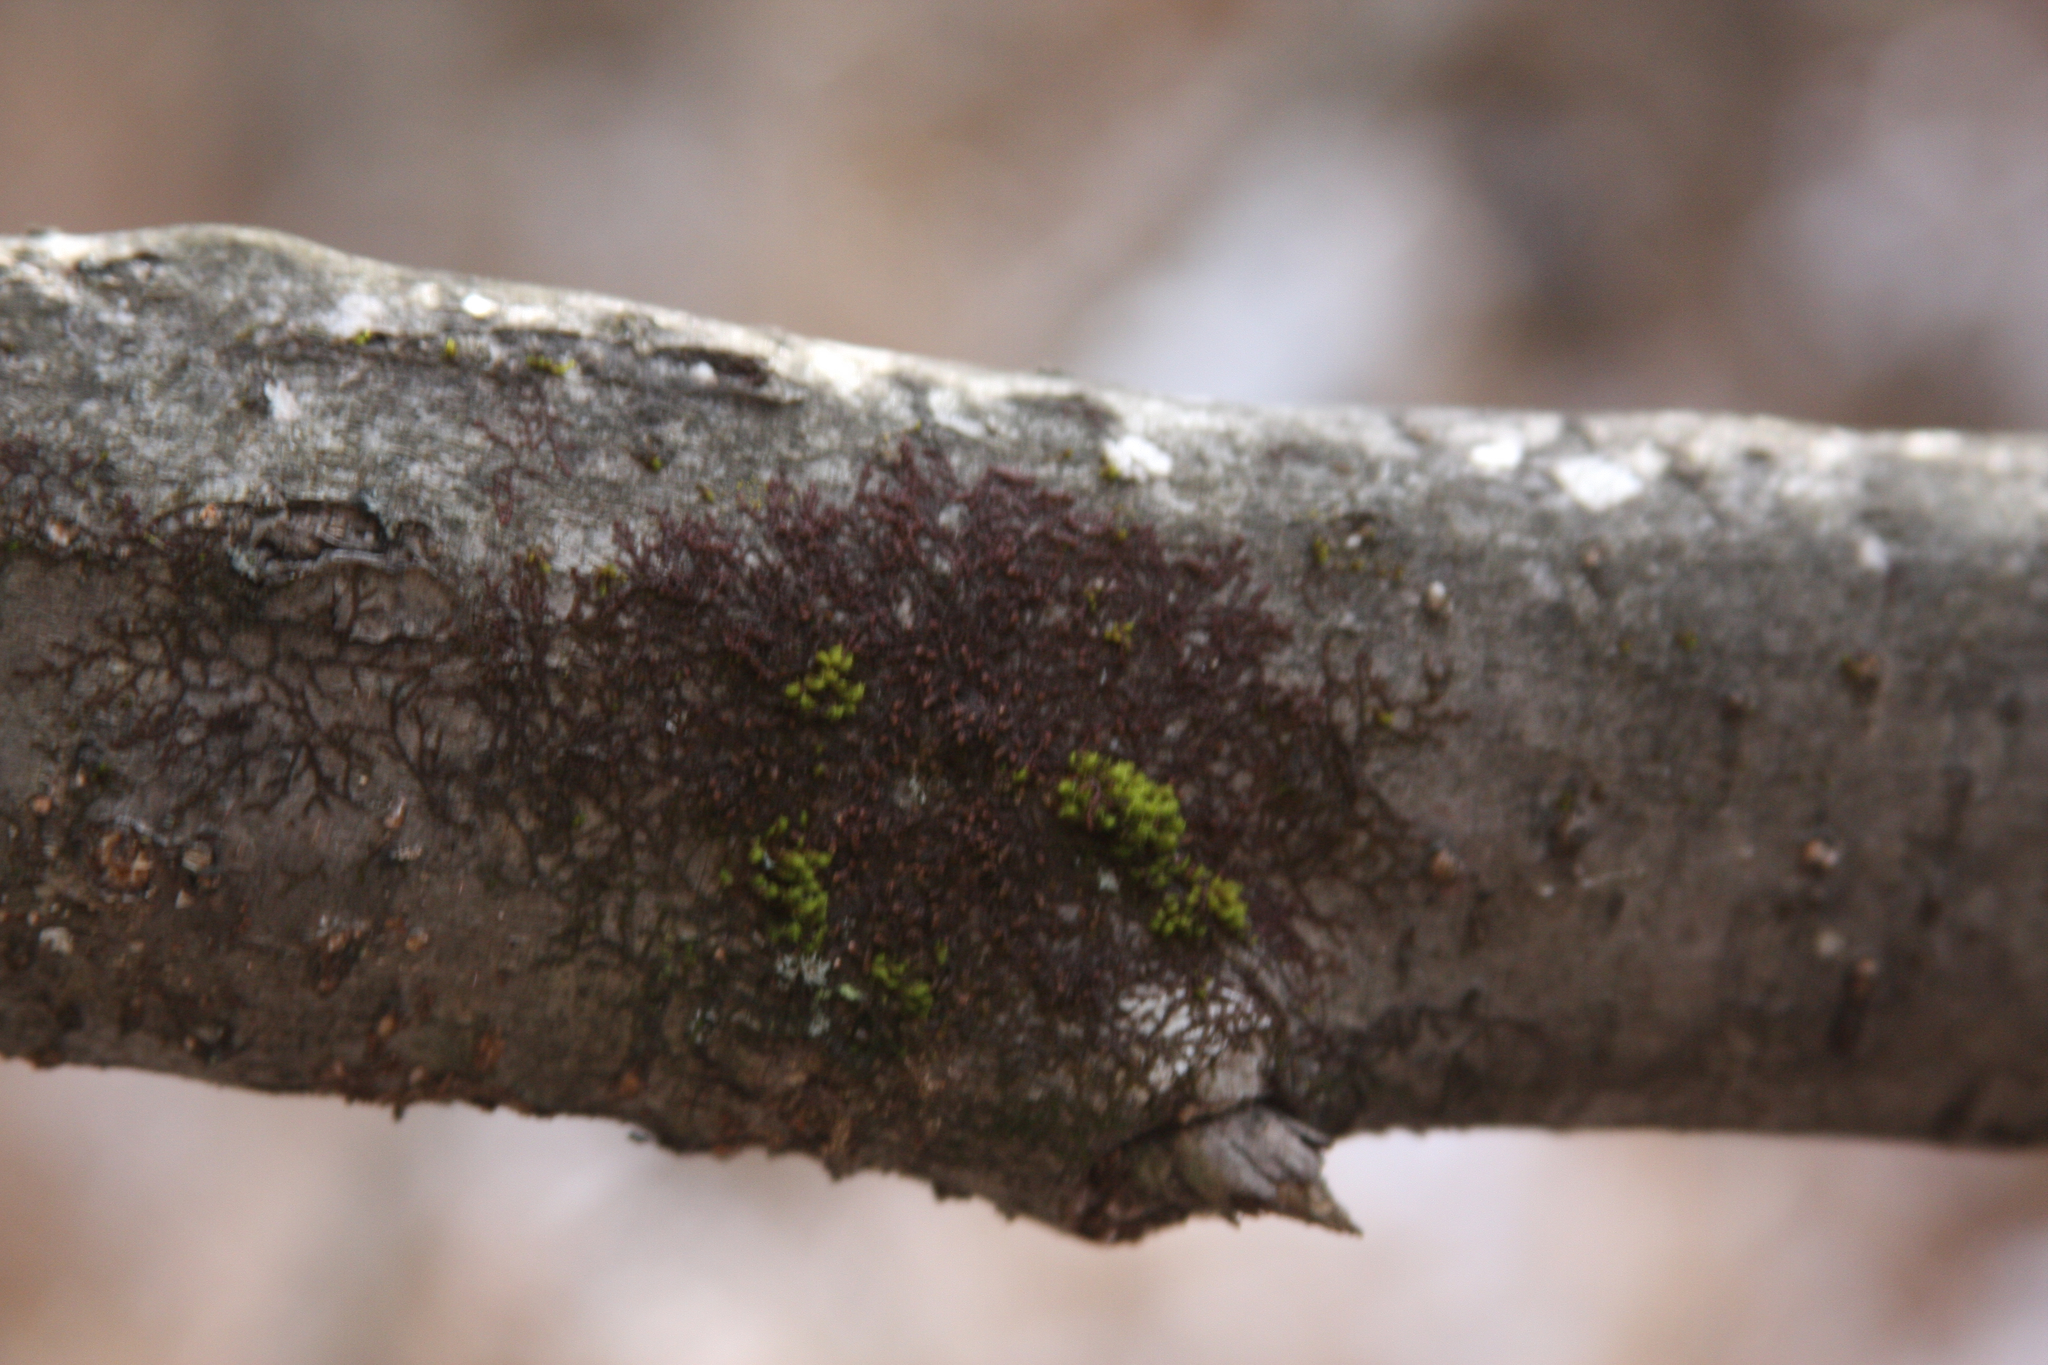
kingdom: Plantae
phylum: Bryophyta
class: Bryopsida
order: Orthotrichales
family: Orthotrichaceae
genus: Ulota
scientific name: Ulota crispa
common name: Crisped pincushion moss
